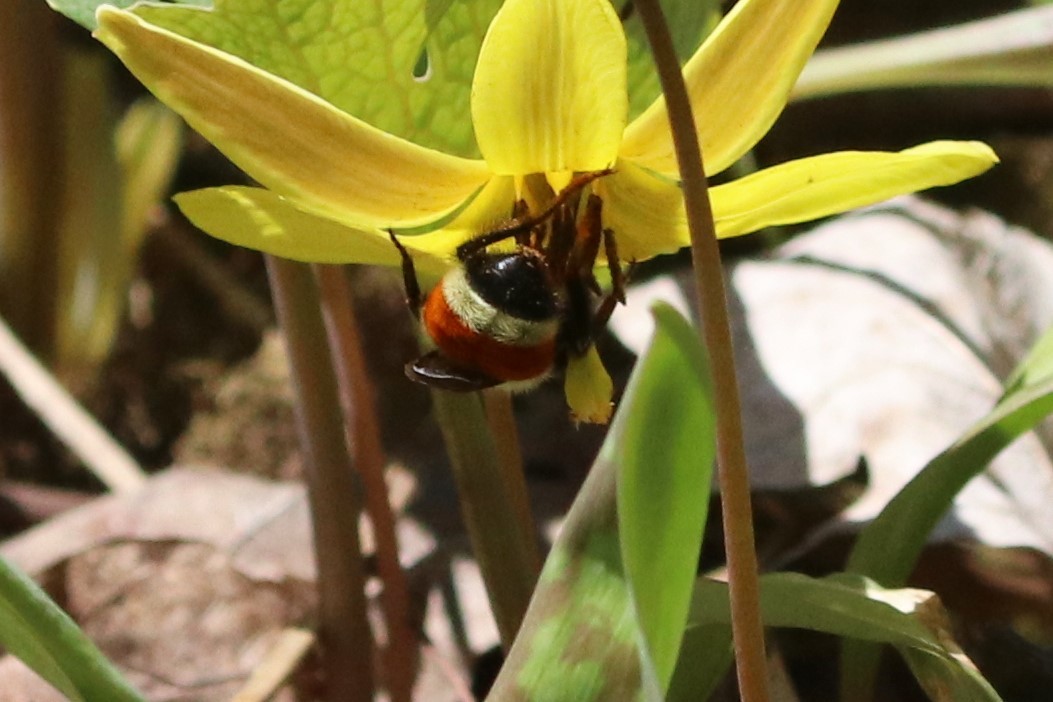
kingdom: Animalia
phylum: Arthropoda
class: Insecta
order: Hymenoptera
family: Apidae
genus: Bombus
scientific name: Bombus ternarius
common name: Tri-colored bumble bee
